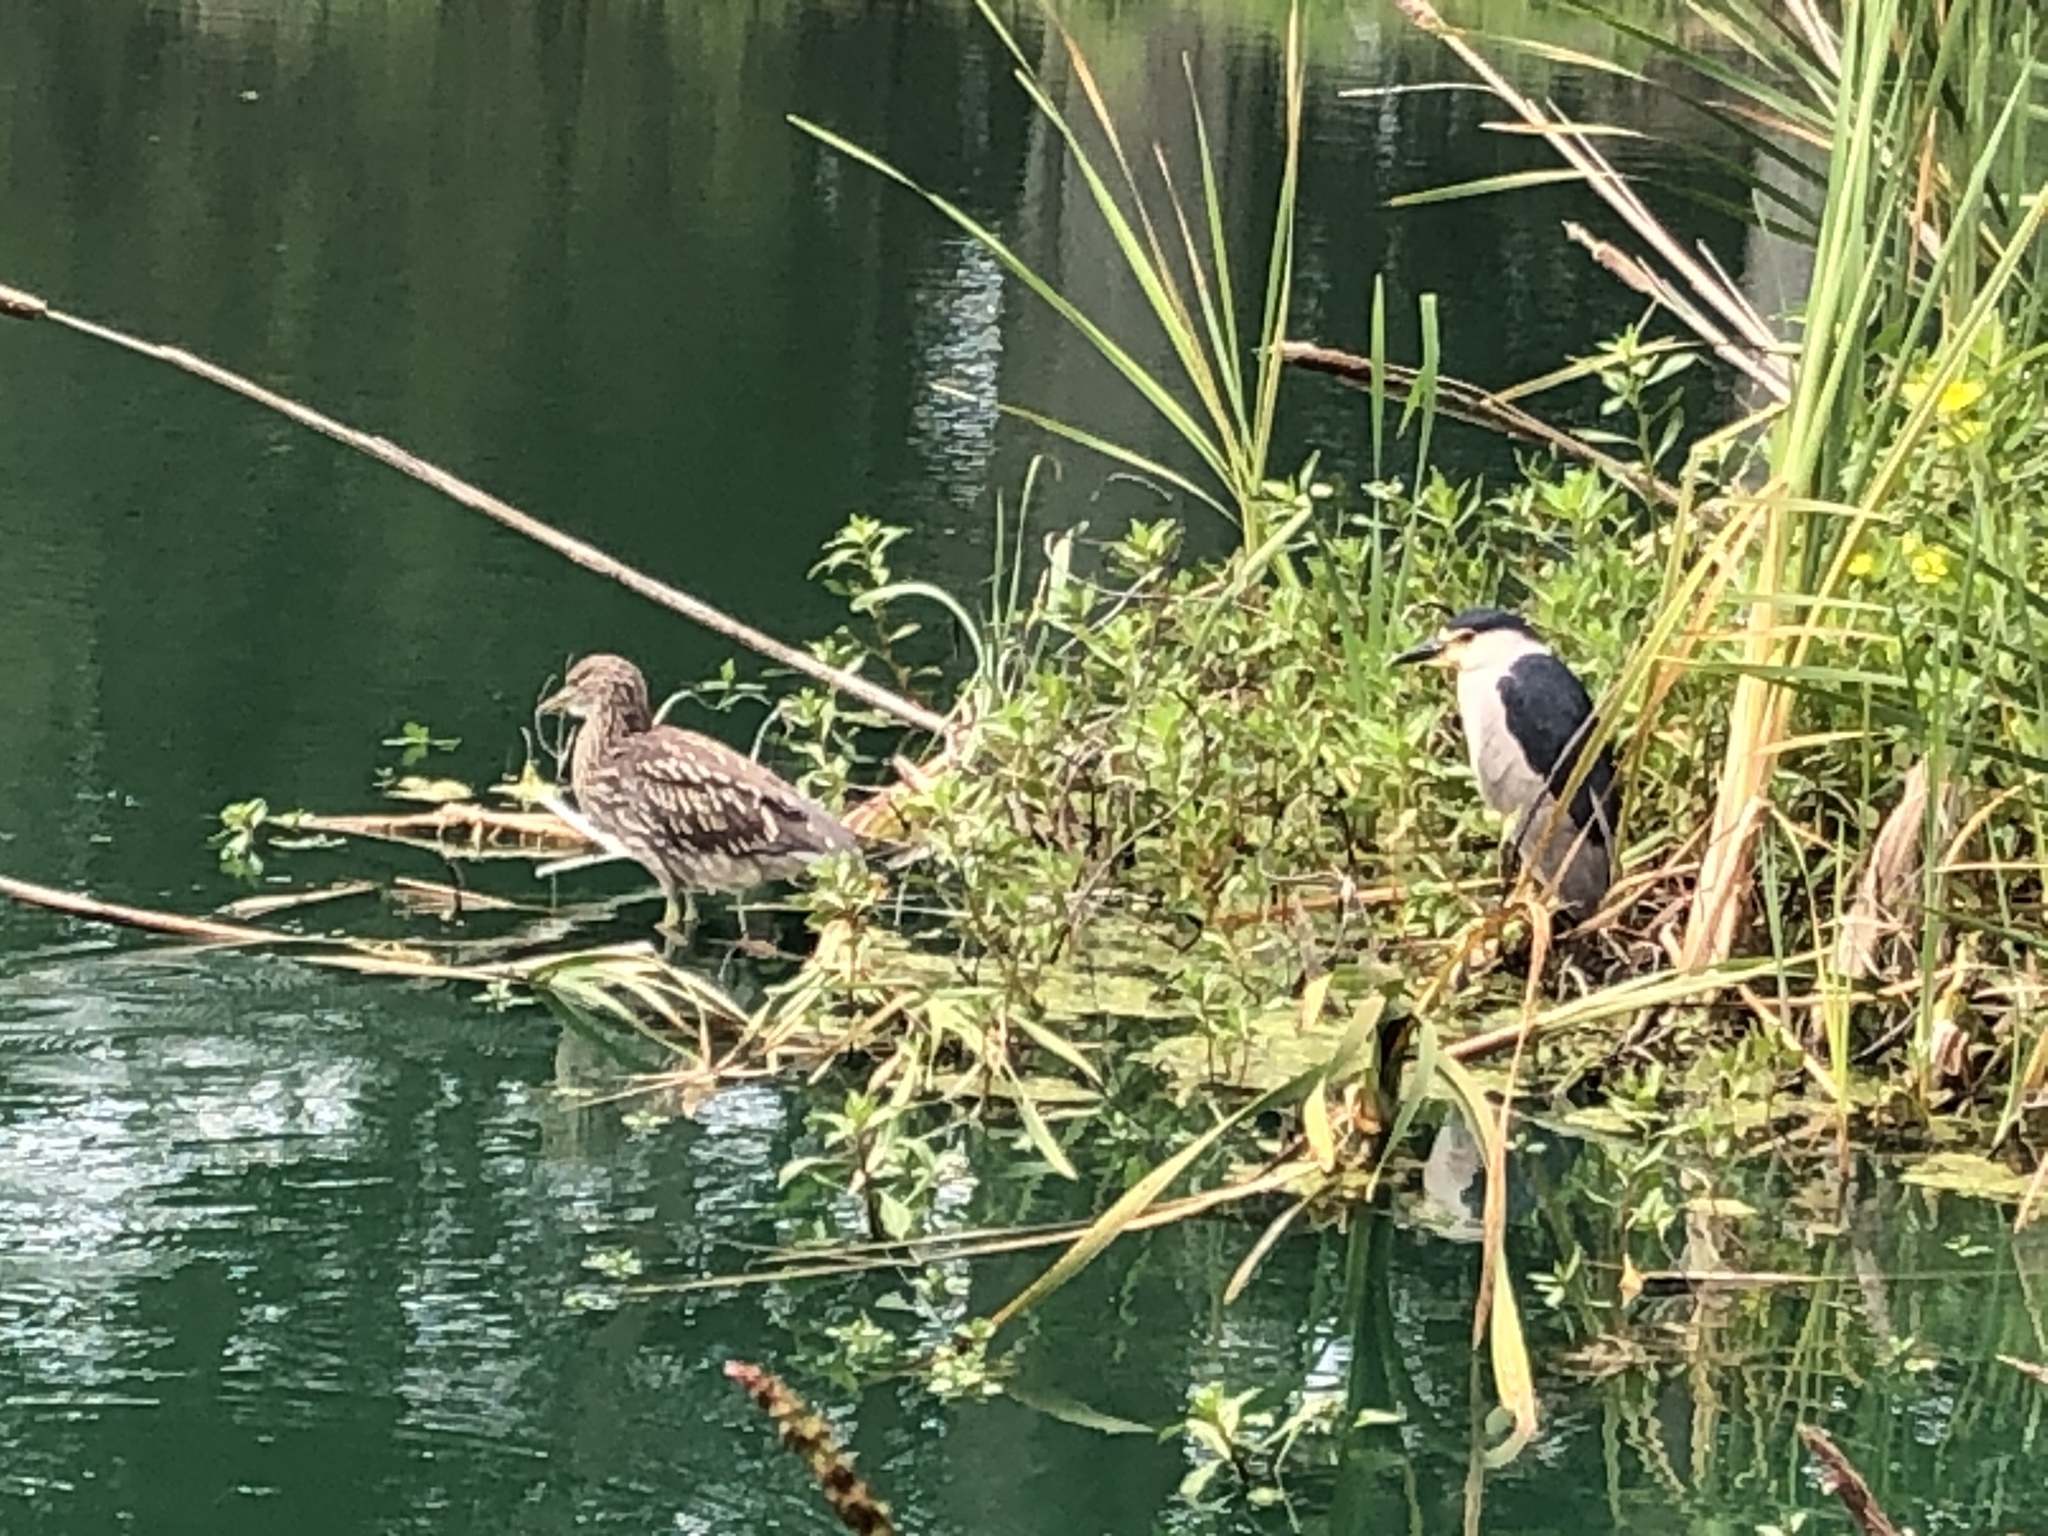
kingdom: Animalia
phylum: Chordata
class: Aves
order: Pelecaniformes
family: Ardeidae
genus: Nycticorax
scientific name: Nycticorax nycticorax
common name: Black-crowned night heron
